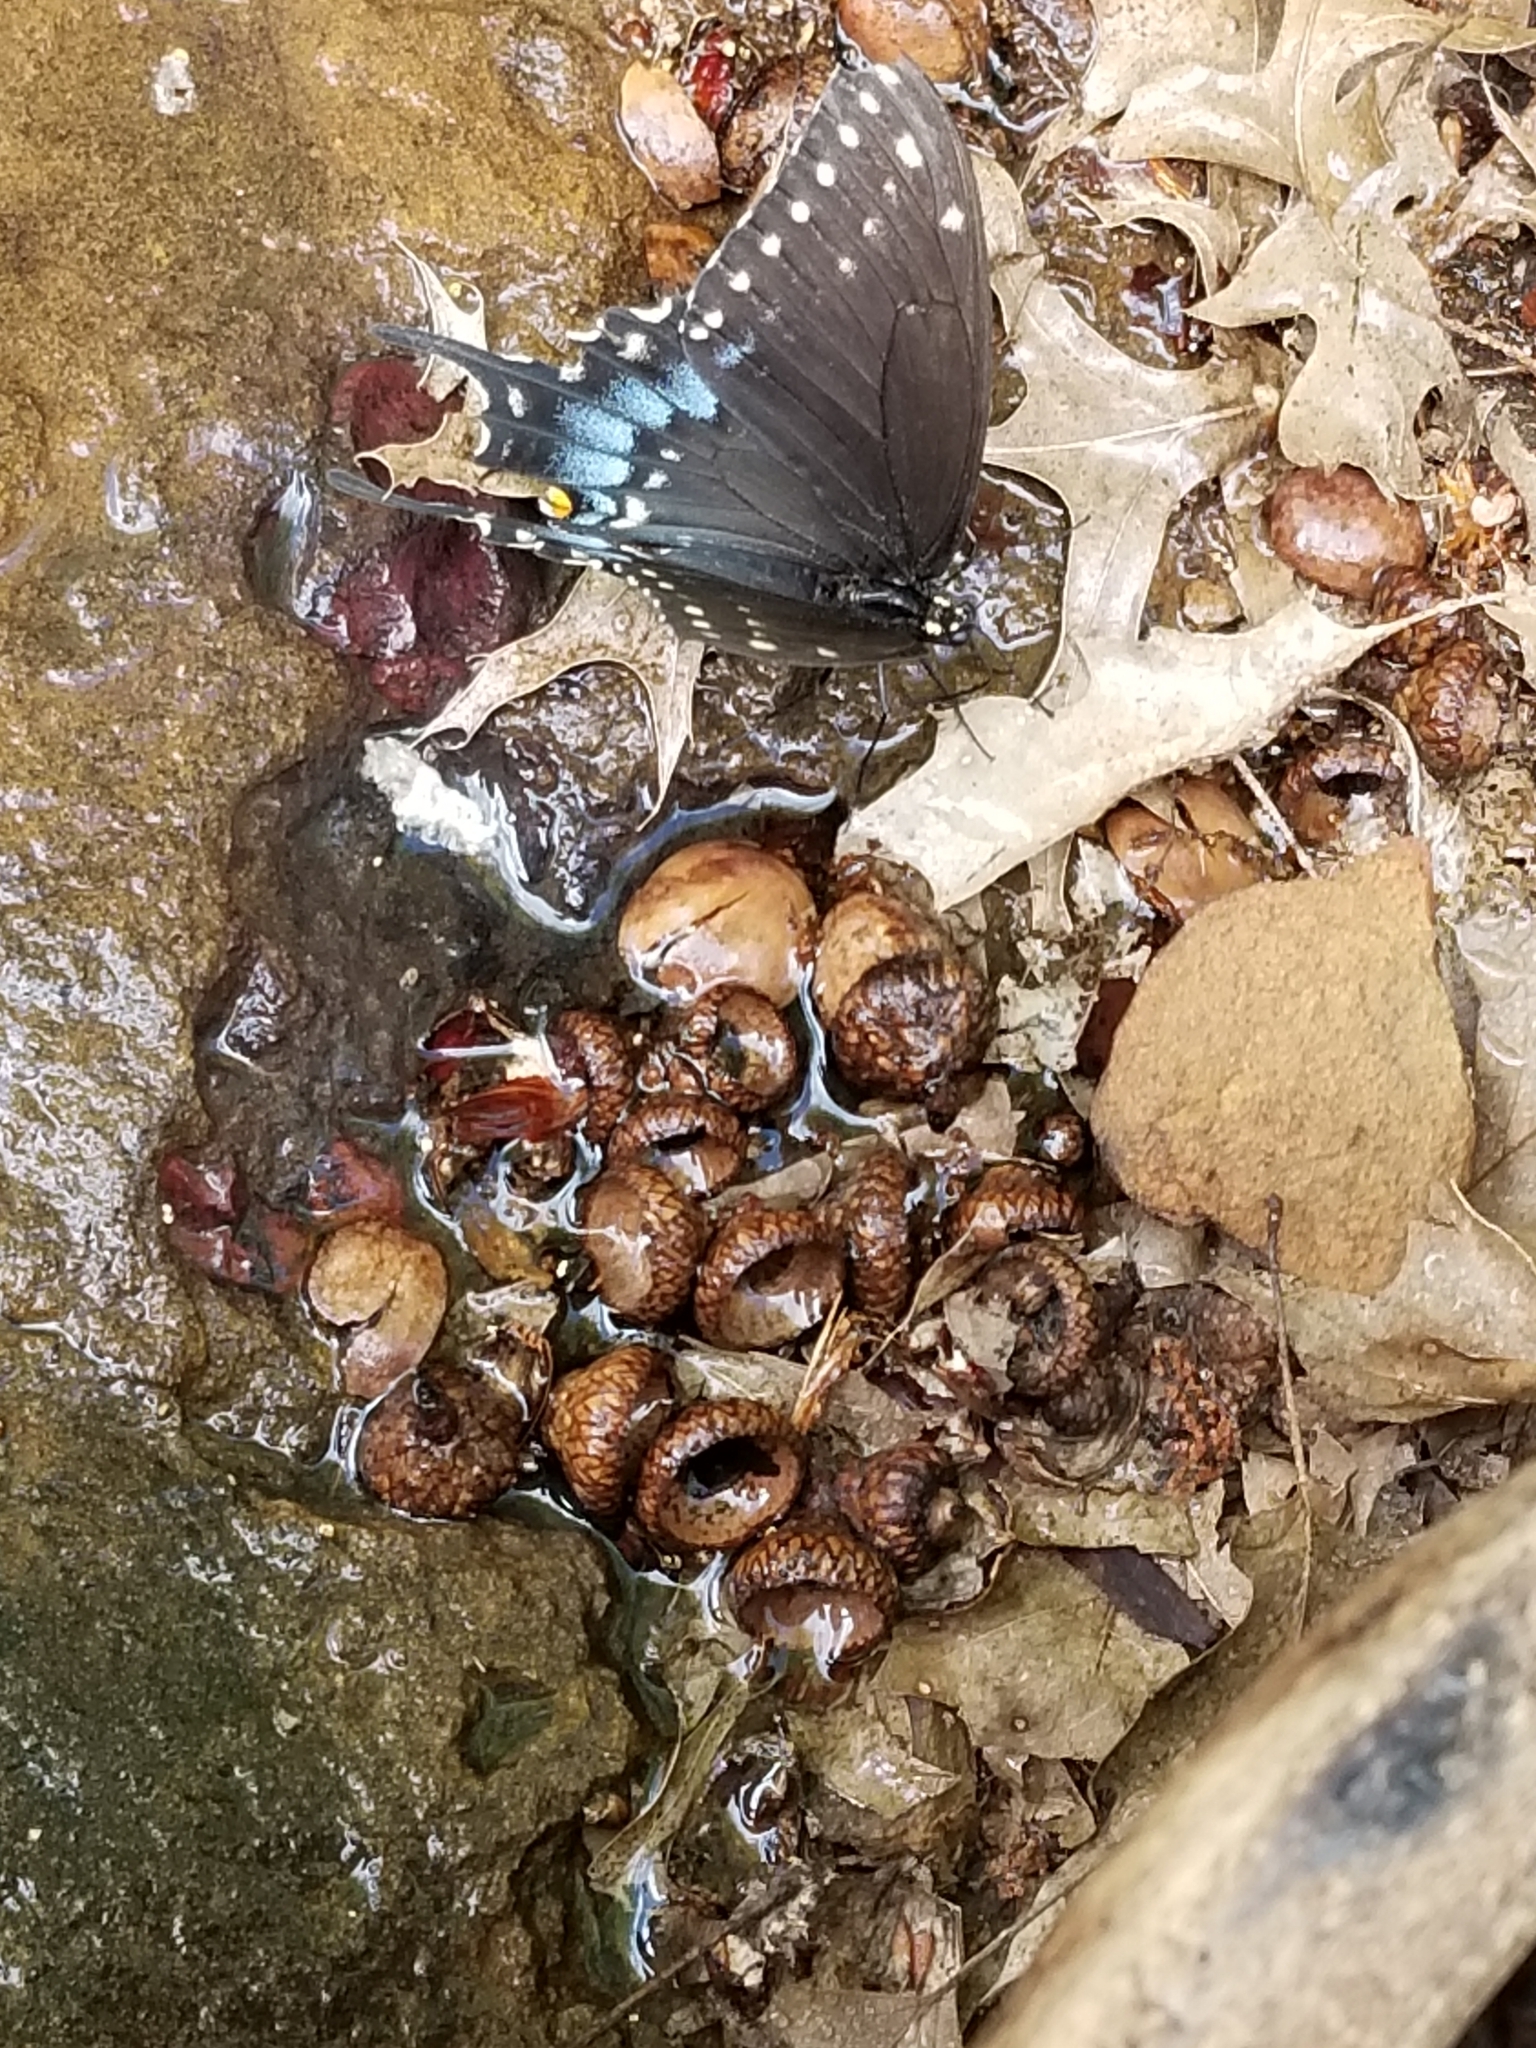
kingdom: Animalia
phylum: Arthropoda
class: Insecta
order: Lepidoptera
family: Papilionidae
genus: Papilio
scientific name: Papilio polyxenes
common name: Black swallowtail
